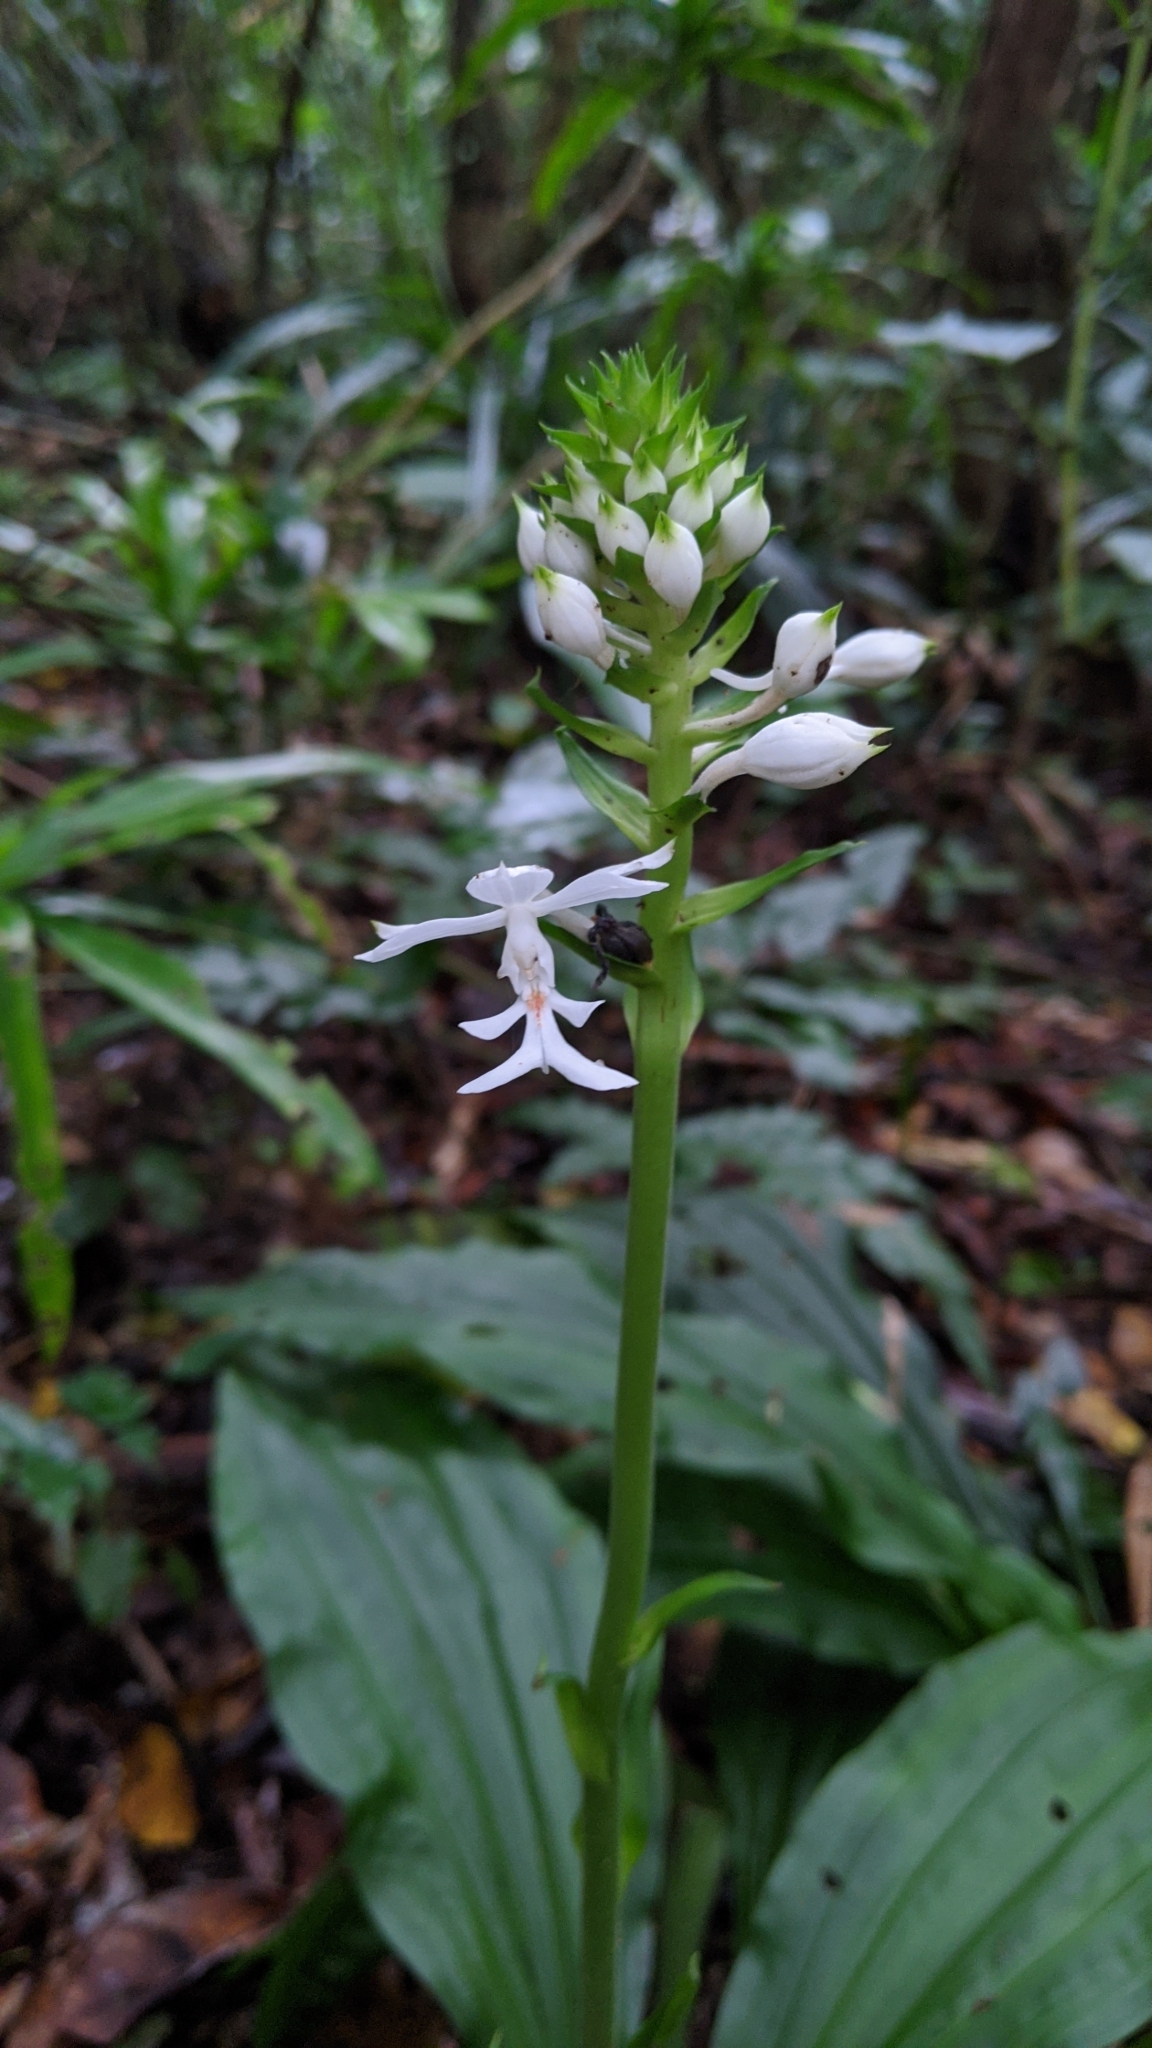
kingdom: Plantae
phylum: Tracheophyta
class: Liliopsida
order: Asparagales
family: Orchidaceae
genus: Calanthe
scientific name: Calanthe triplicata
